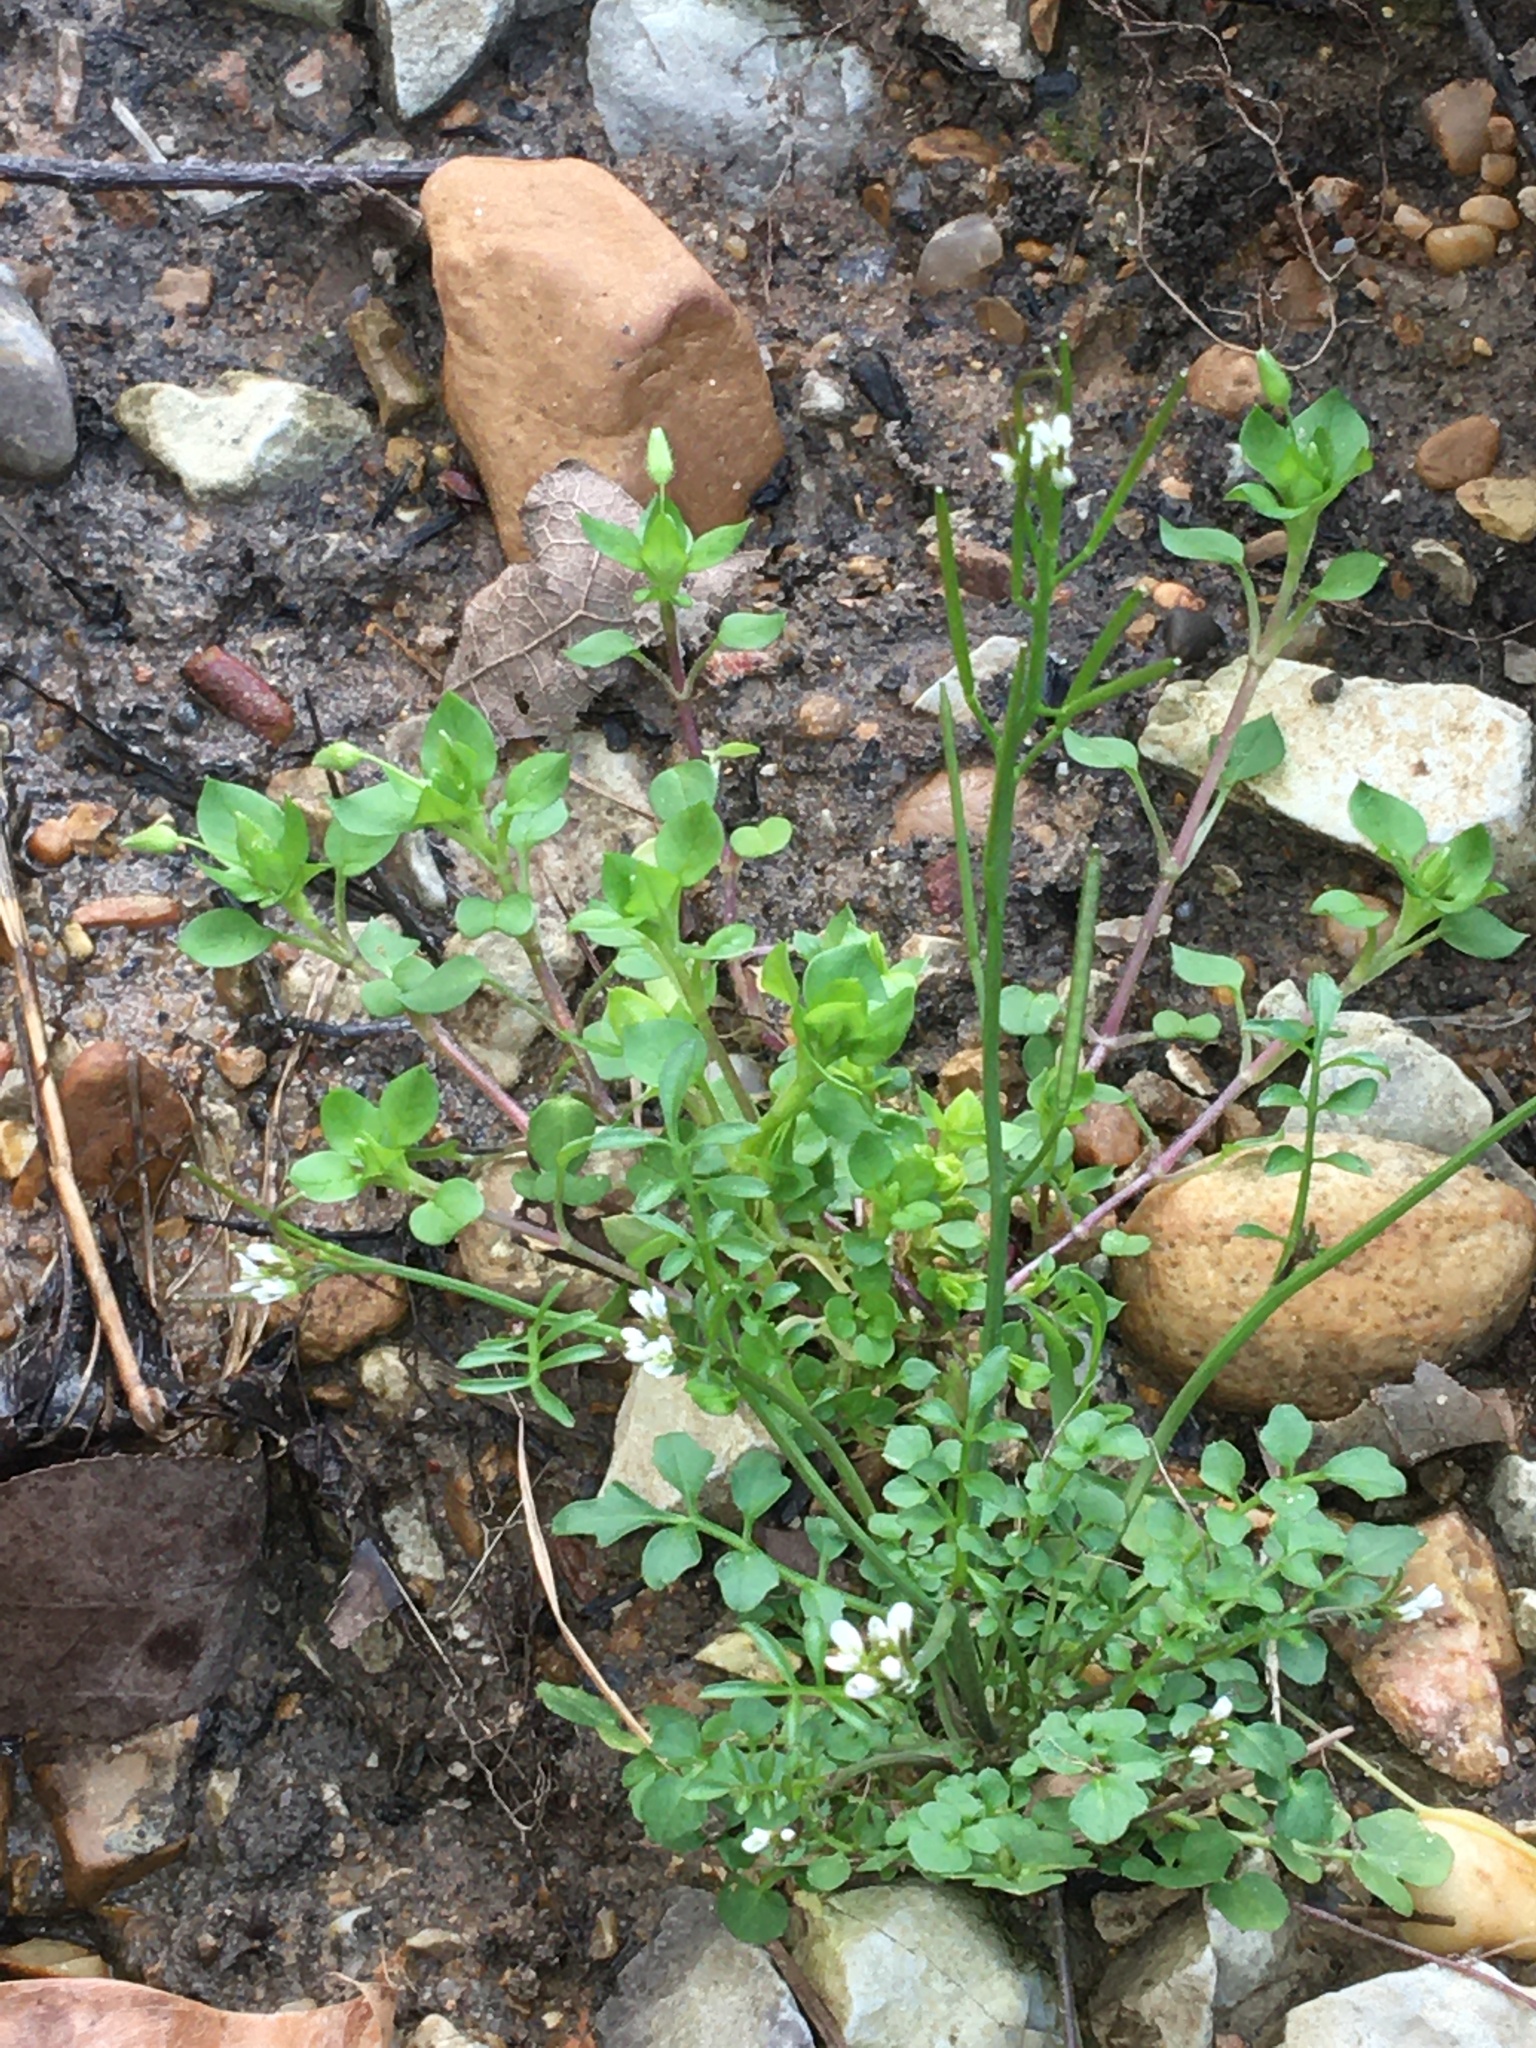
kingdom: Plantae
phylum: Tracheophyta
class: Magnoliopsida
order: Brassicales
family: Brassicaceae
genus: Cardamine
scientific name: Cardamine hirsuta
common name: Hairy bittercress
